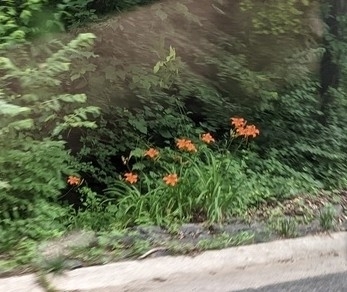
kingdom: Plantae
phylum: Tracheophyta
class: Liliopsida
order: Asparagales
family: Asphodelaceae
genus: Hemerocallis
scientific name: Hemerocallis fulva
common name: Orange day-lily
